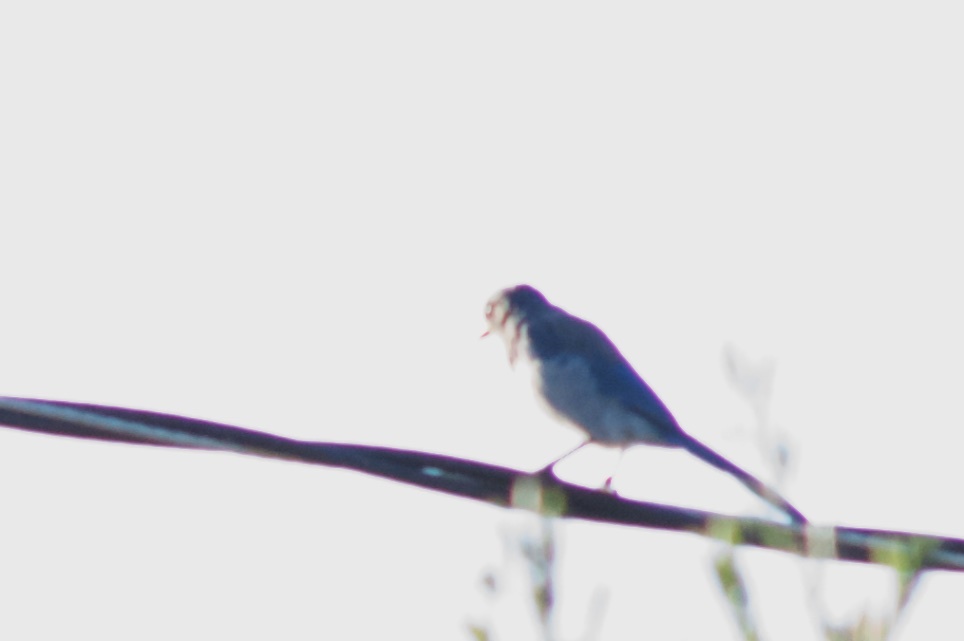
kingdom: Animalia
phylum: Chordata
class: Aves
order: Passeriformes
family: Corvidae
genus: Aphelocoma
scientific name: Aphelocoma californica
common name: California scrub-jay
